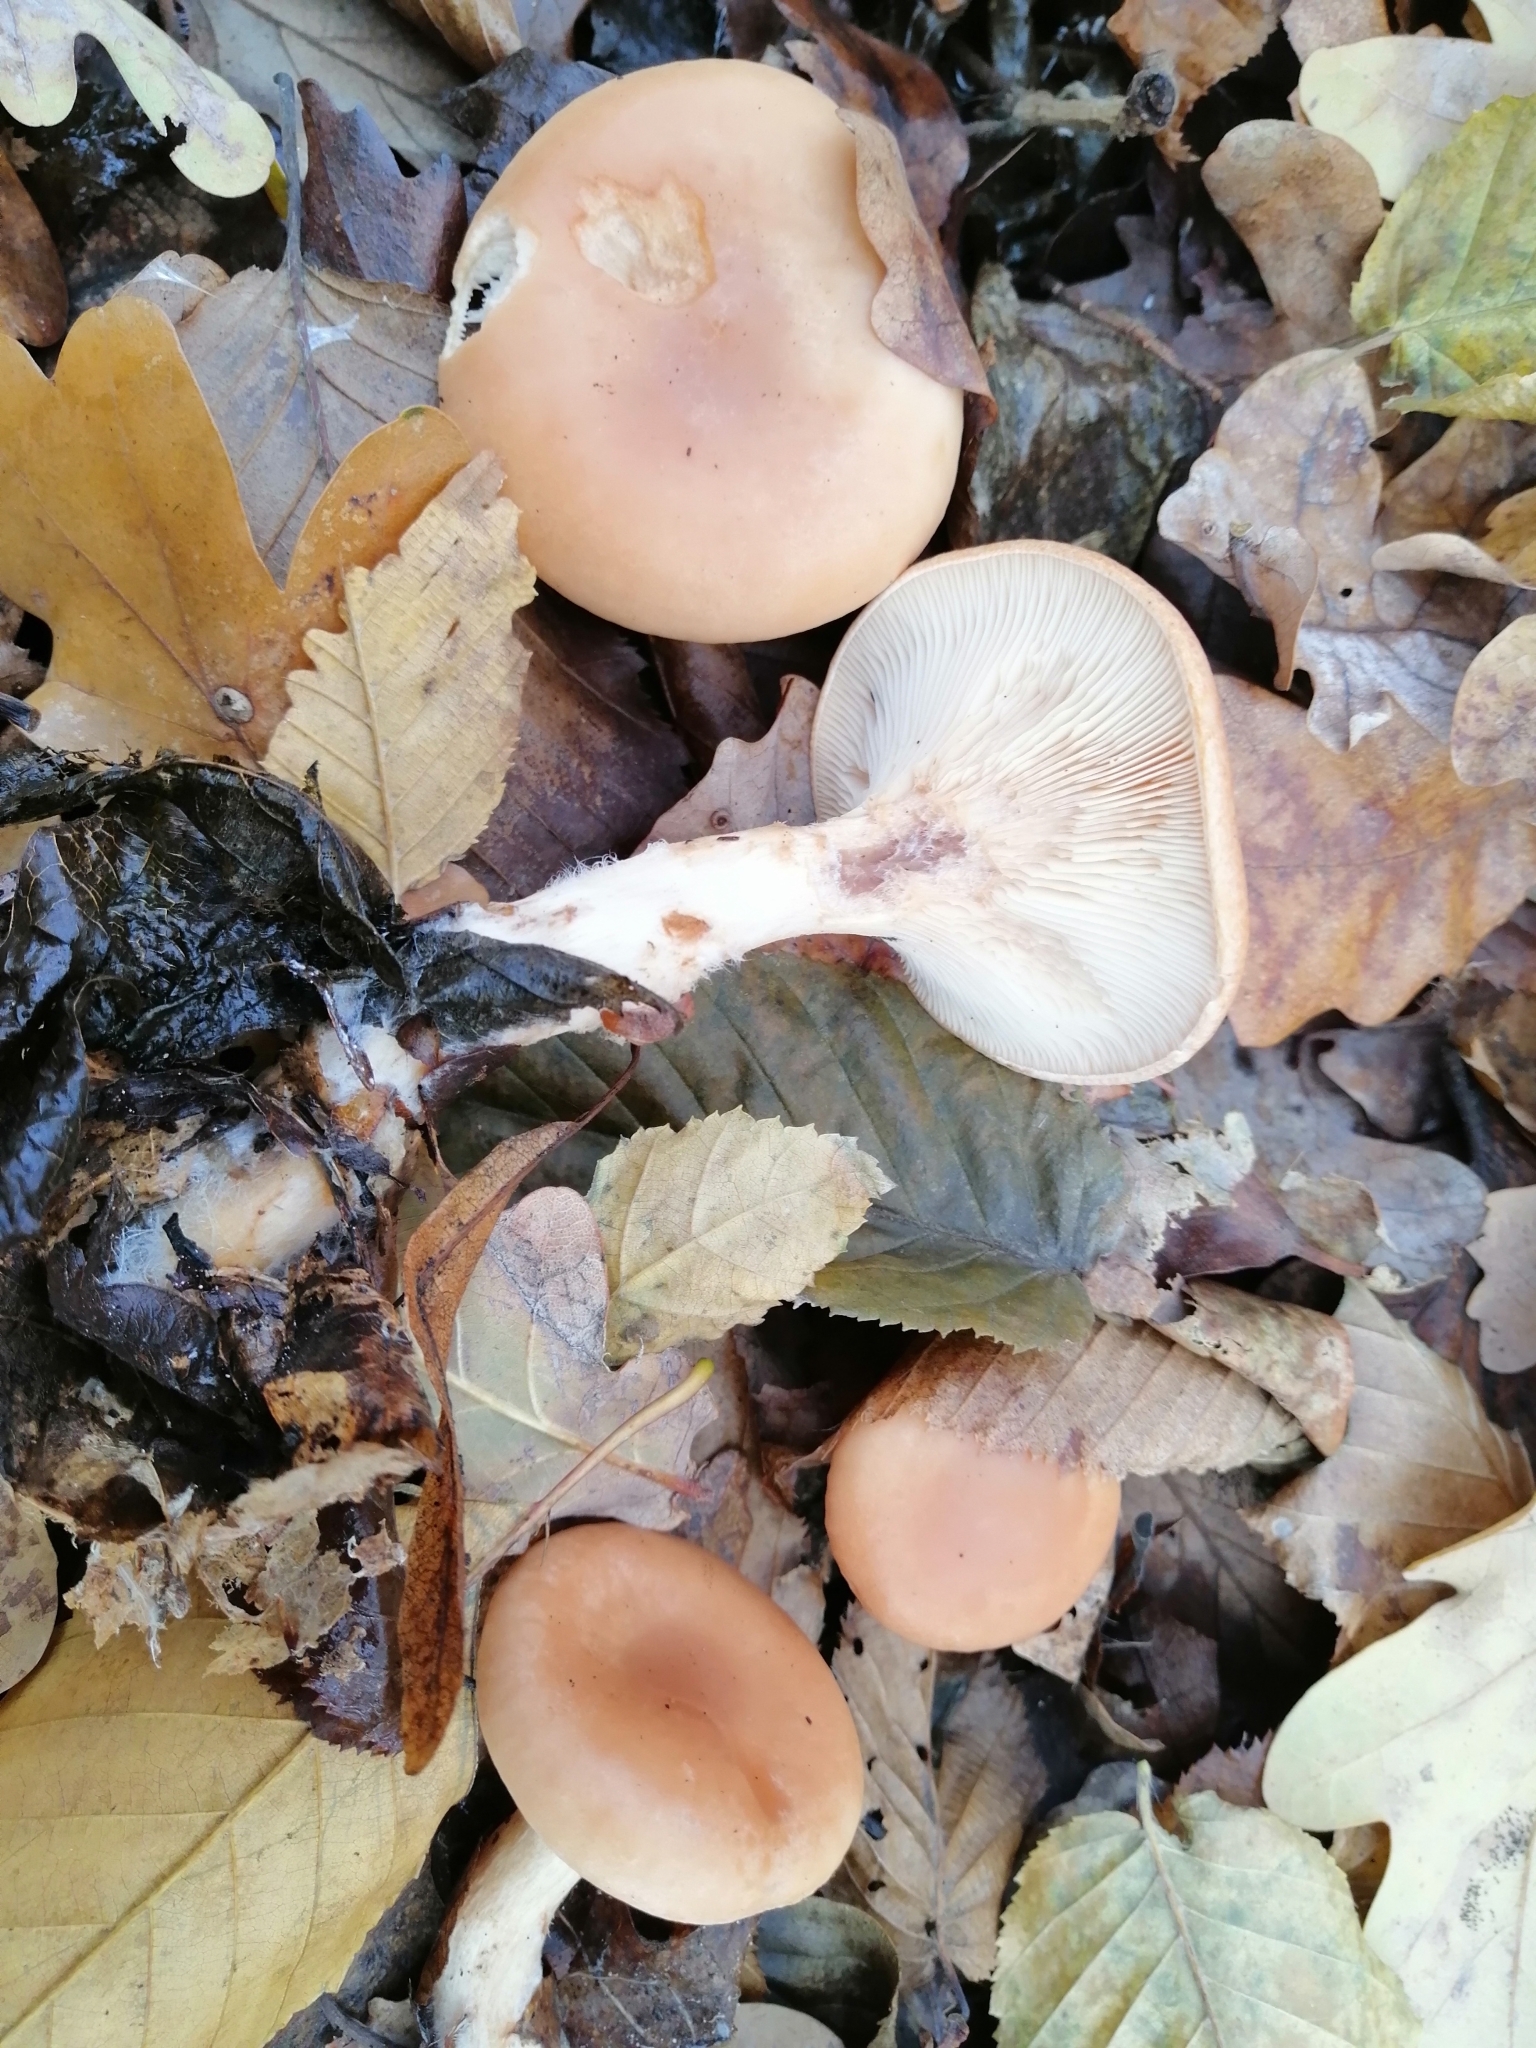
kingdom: Fungi
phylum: Basidiomycota
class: Agaricomycetes
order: Agaricales
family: Tricholomataceae
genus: Paralepista
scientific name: Paralepista flaccida
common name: Tawny funnel cap
